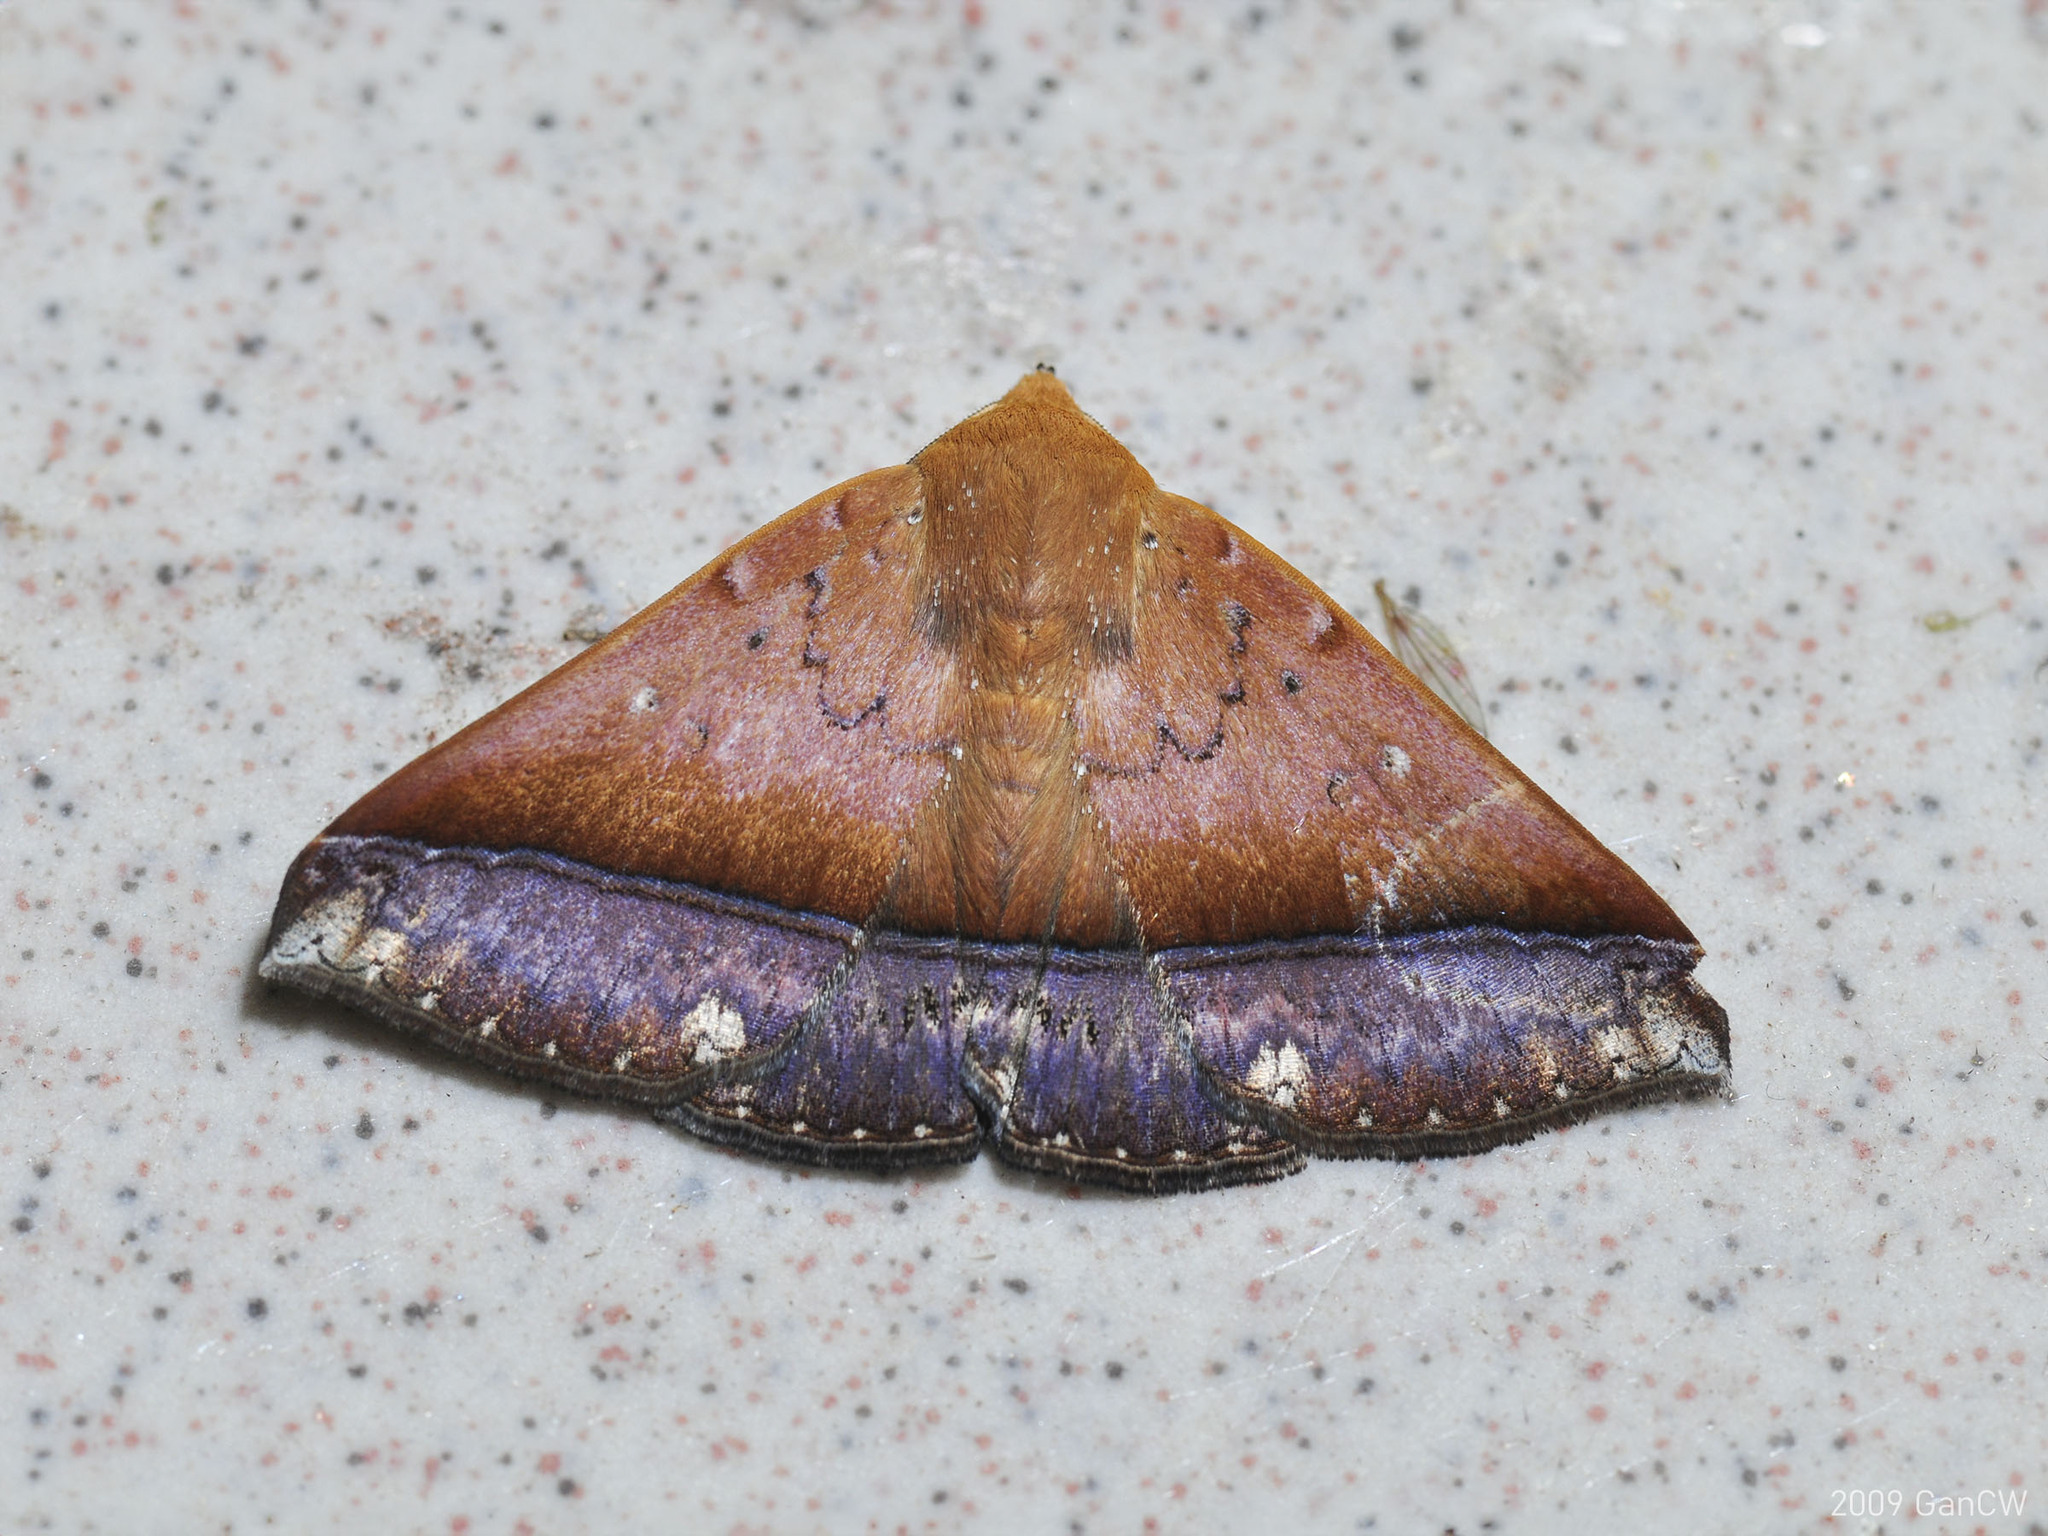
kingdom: Animalia
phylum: Arthropoda
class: Insecta
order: Lepidoptera
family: Erebidae
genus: Delgamma
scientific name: Delgamma
